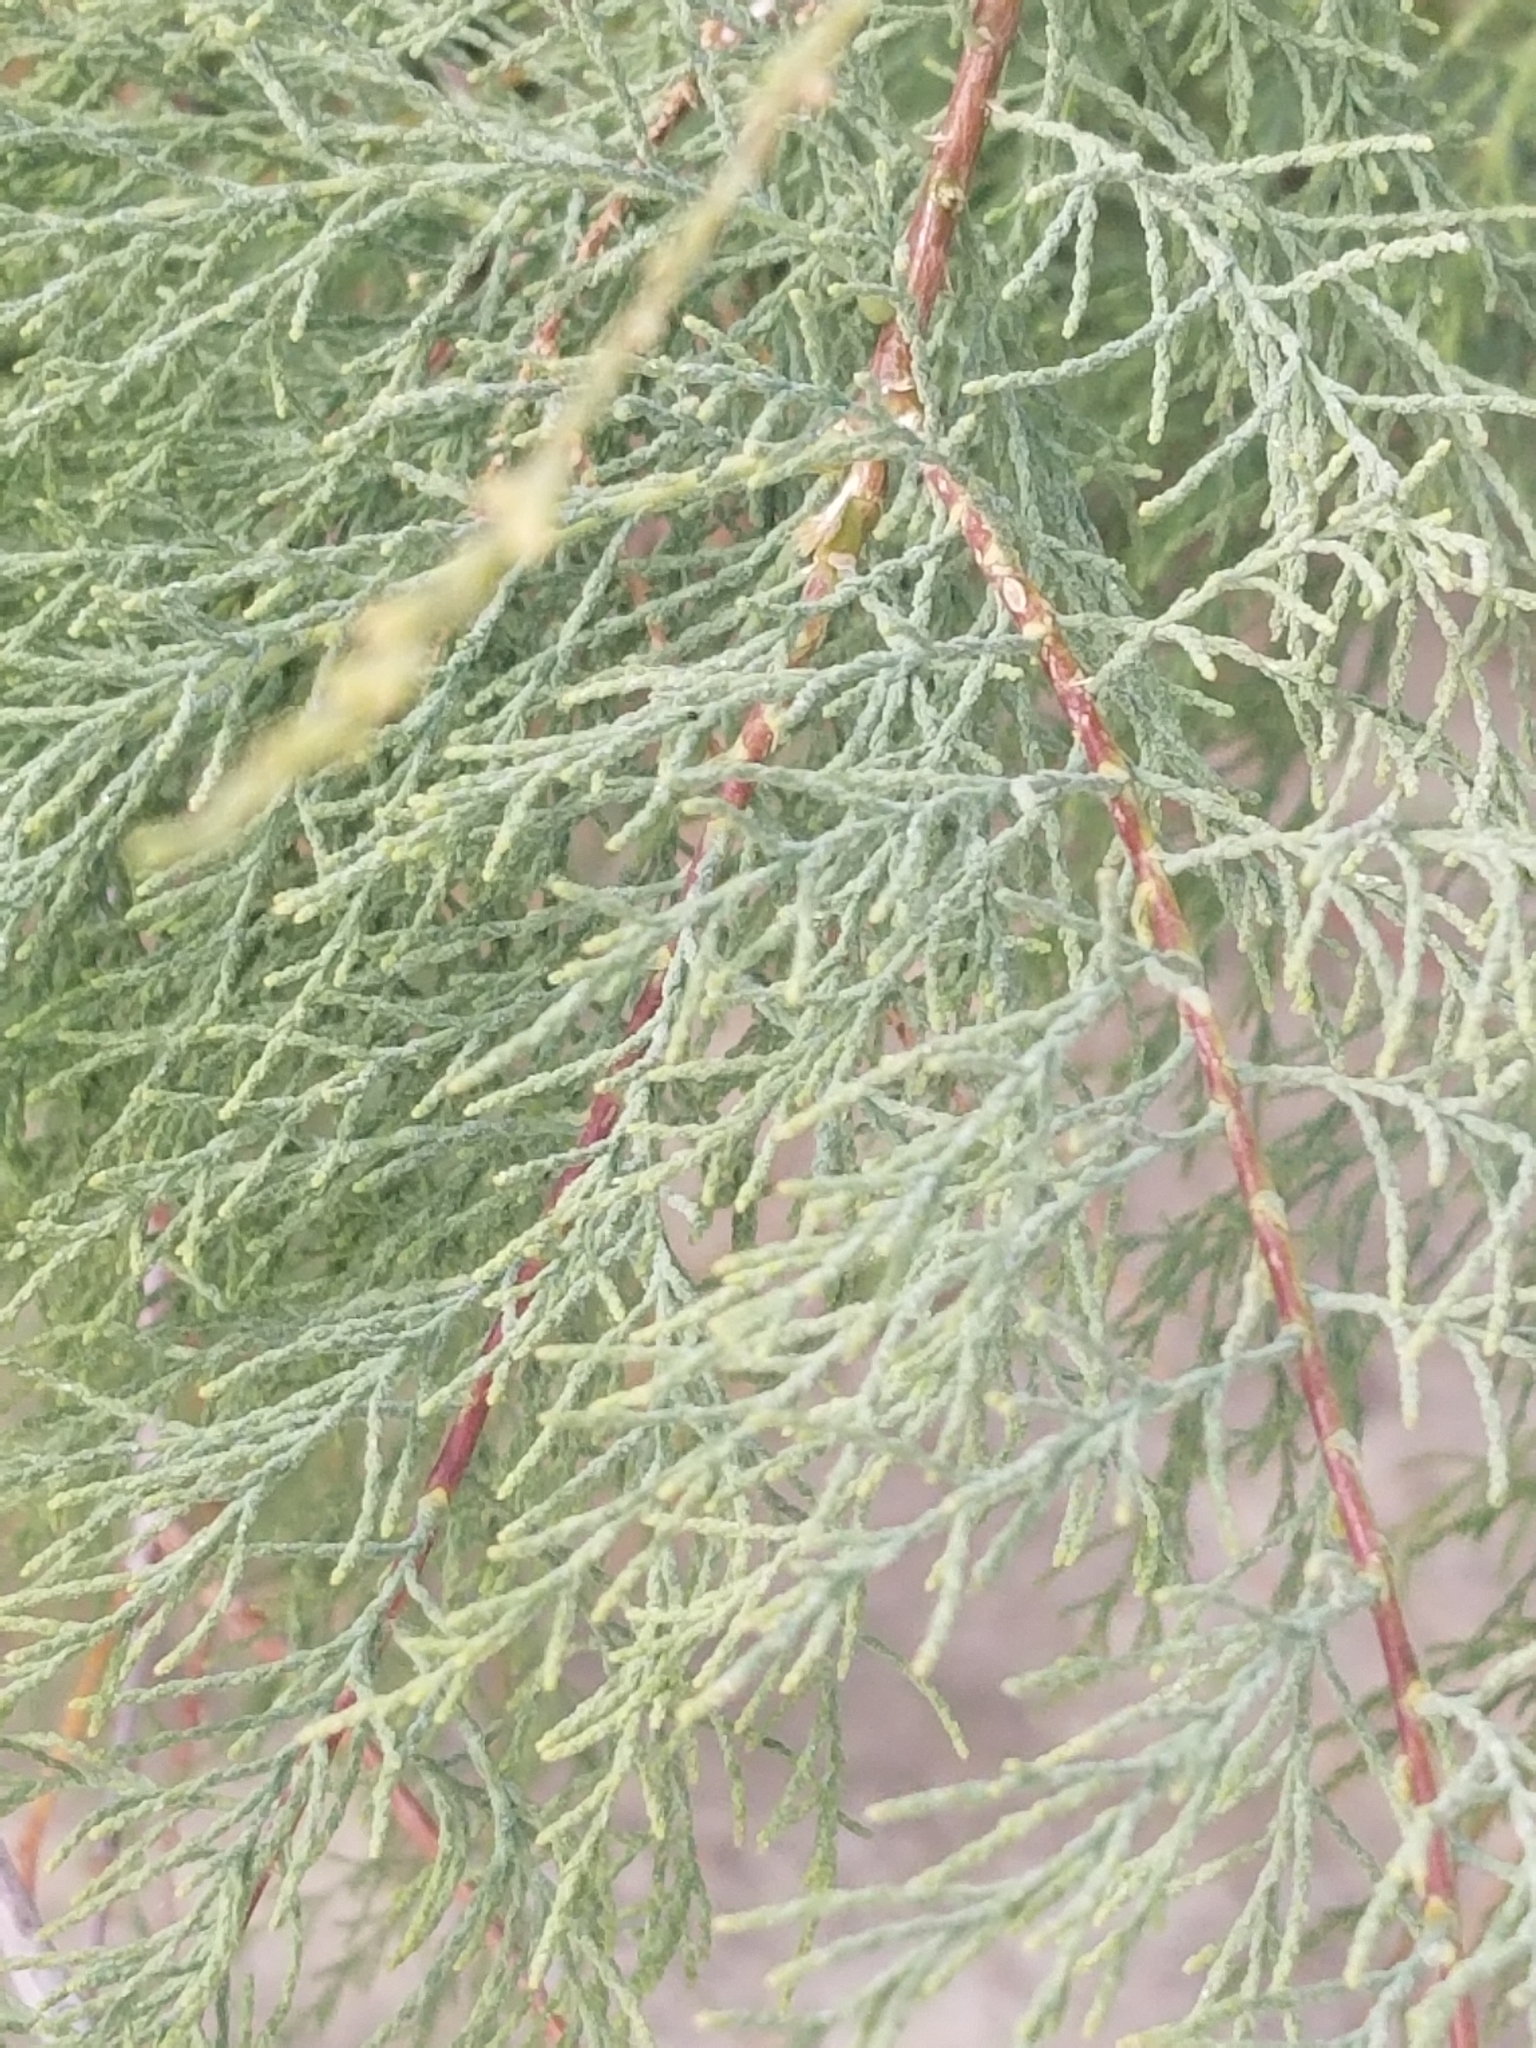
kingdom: Plantae
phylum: Tracheophyta
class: Magnoliopsida
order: Caryophyllales
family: Tamaricaceae
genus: Tamarix
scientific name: Tamarix ramosissima
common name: Pink tamarisk
